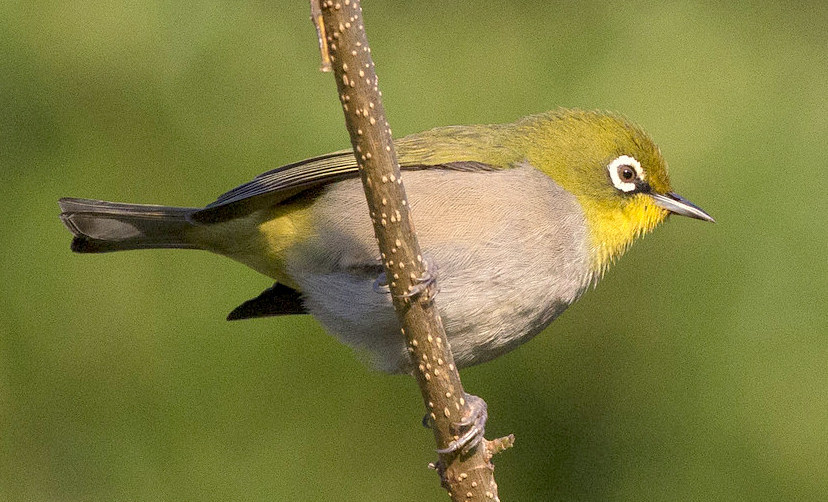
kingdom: Animalia
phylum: Chordata
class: Aves
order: Passeriformes
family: Zosteropidae
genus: Zosterops
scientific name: Zosterops virens
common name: Cape white-eye
